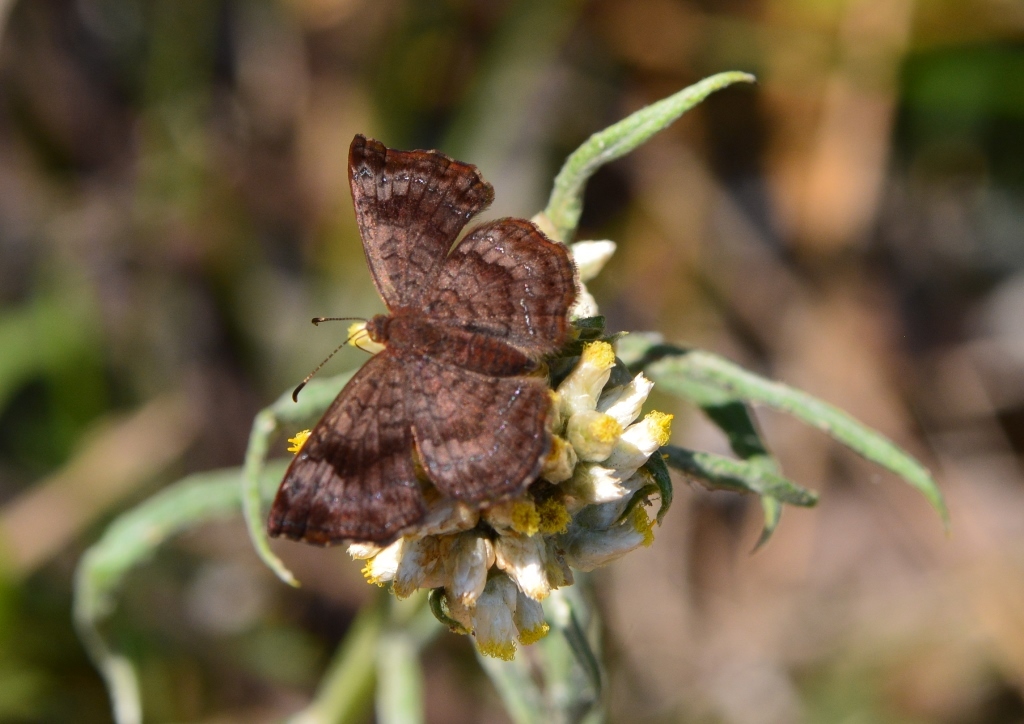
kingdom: Animalia
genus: Calephelis
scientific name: Calephelis perditalis
